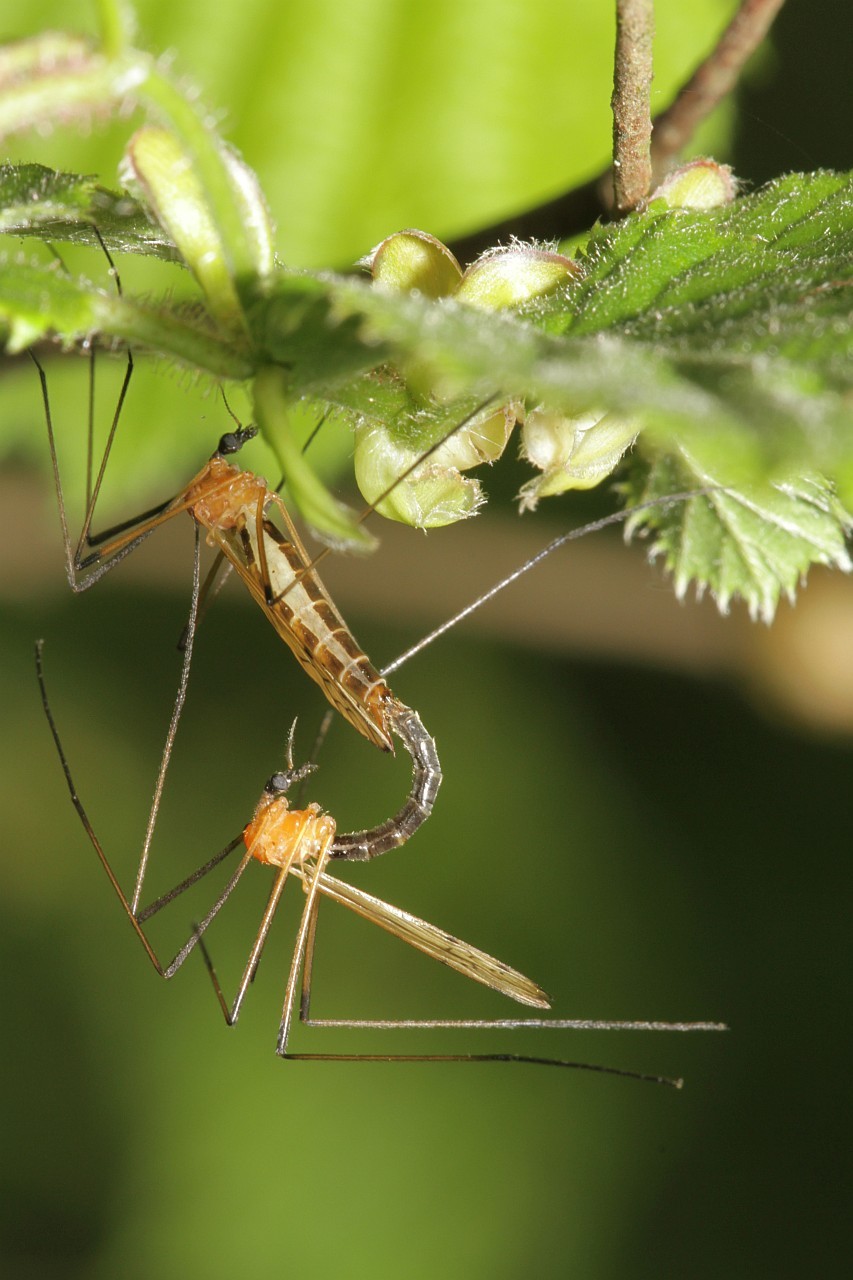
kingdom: Animalia
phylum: Arthropoda
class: Insecta
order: Diptera
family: Limoniidae
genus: Limonia
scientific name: Limonia nigropunctata
